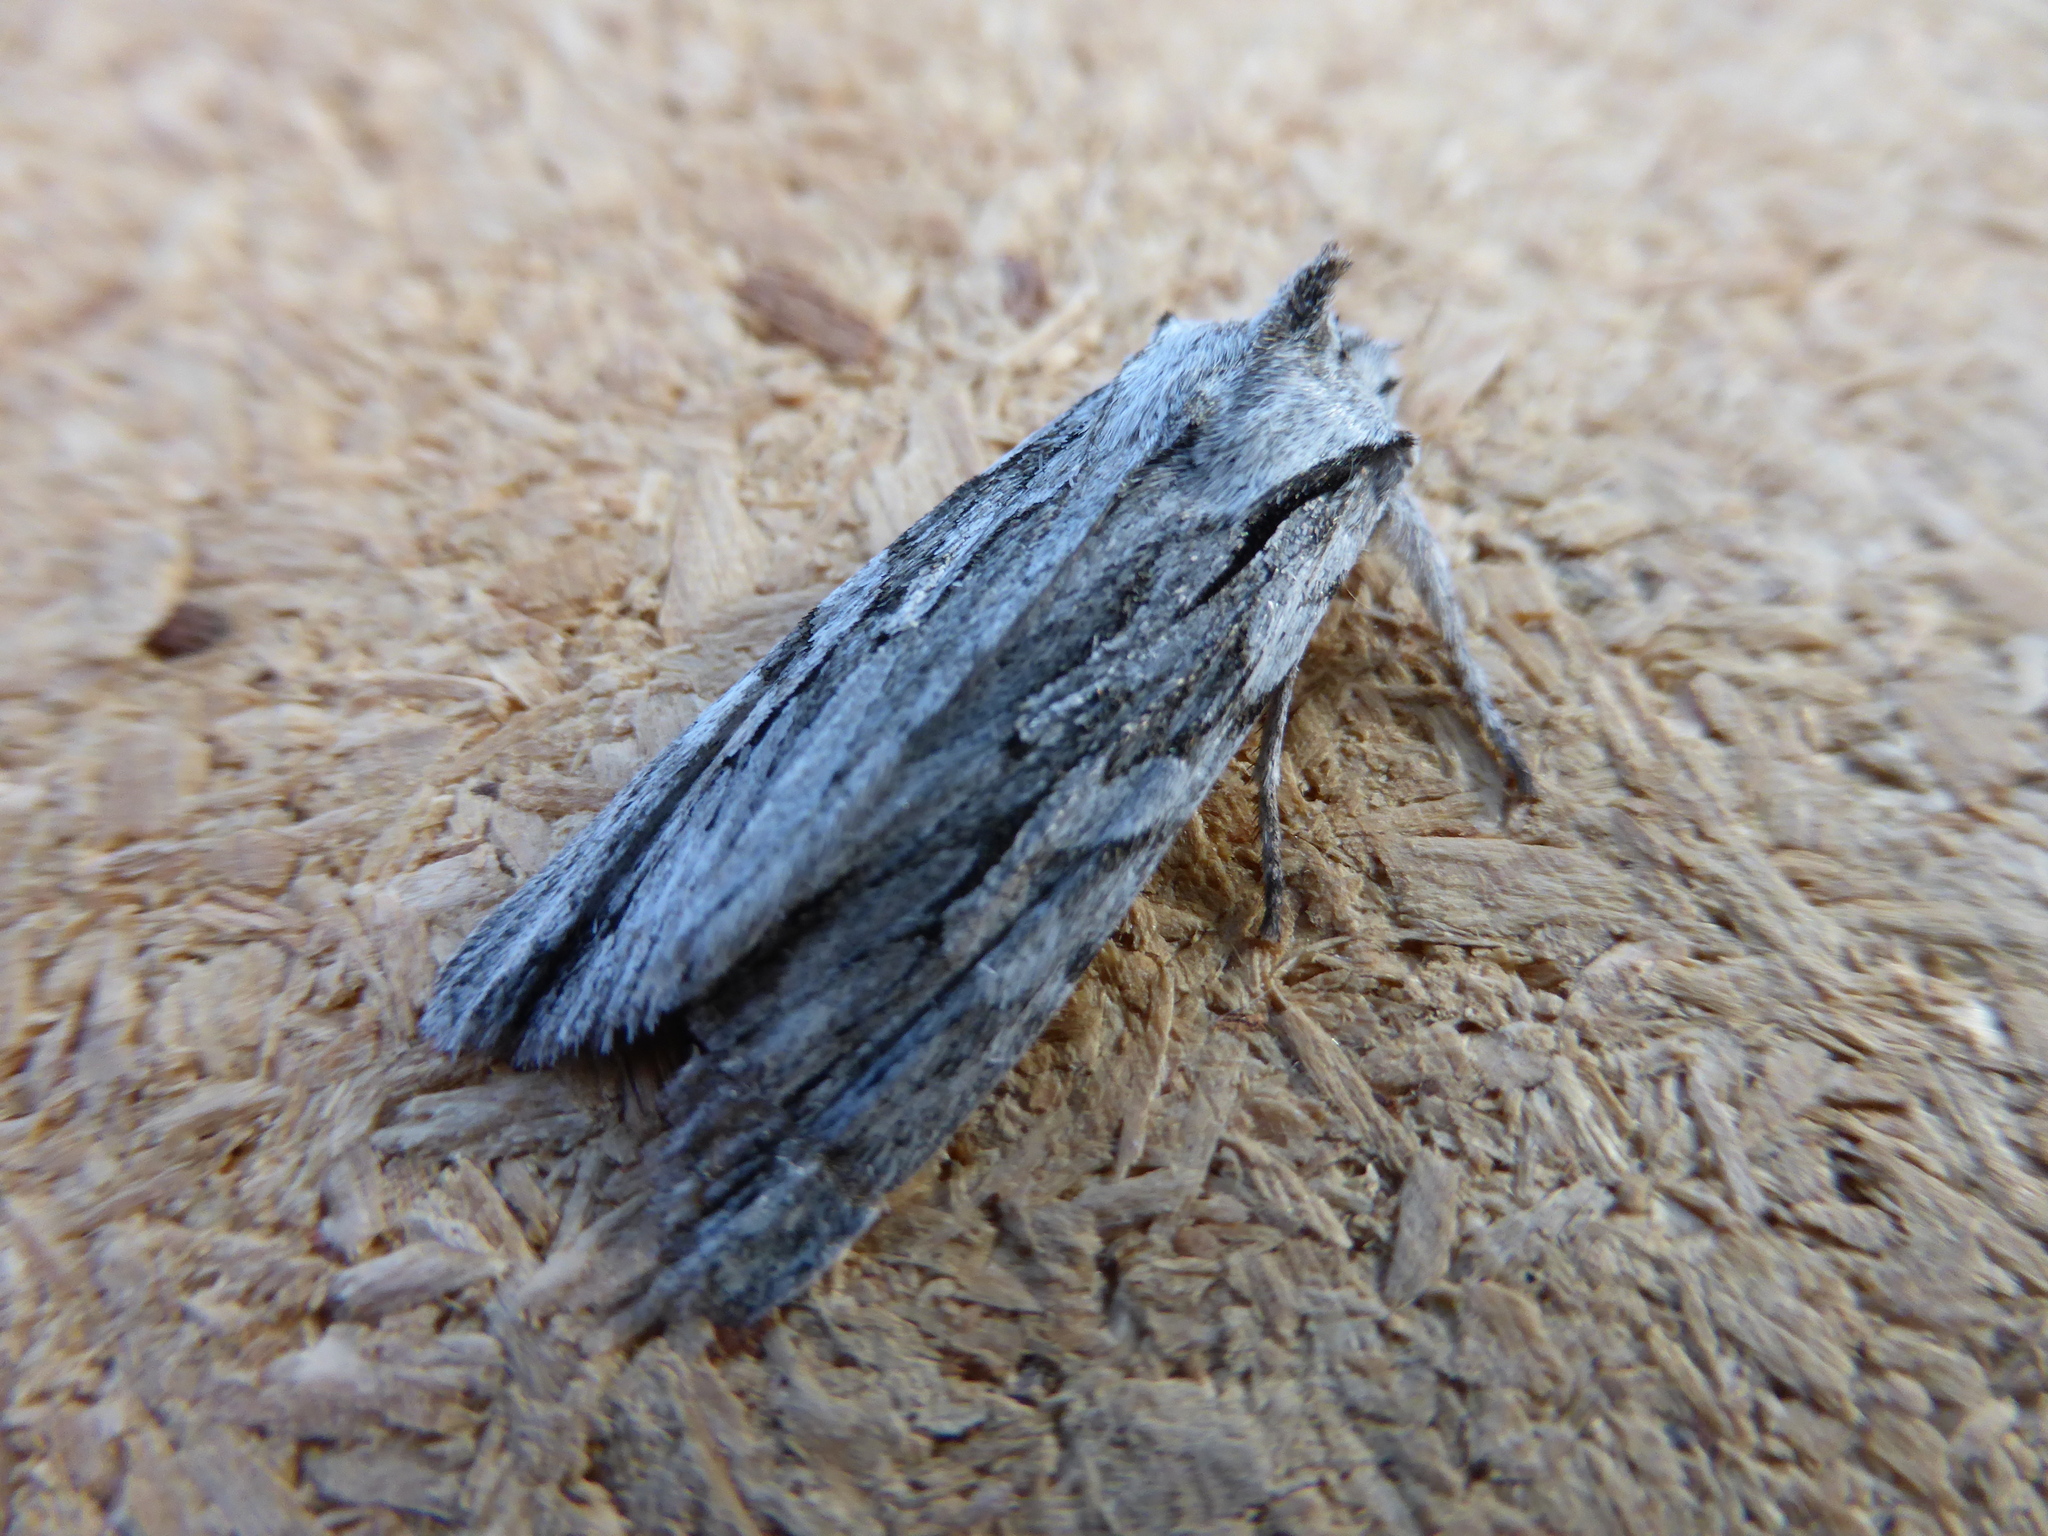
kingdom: Animalia
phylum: Arthropoda
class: Insecta
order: Lepidoptera
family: Noctuidae
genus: Lithophane
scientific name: Lithophane leautieri
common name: Blair's shoulder-knot
